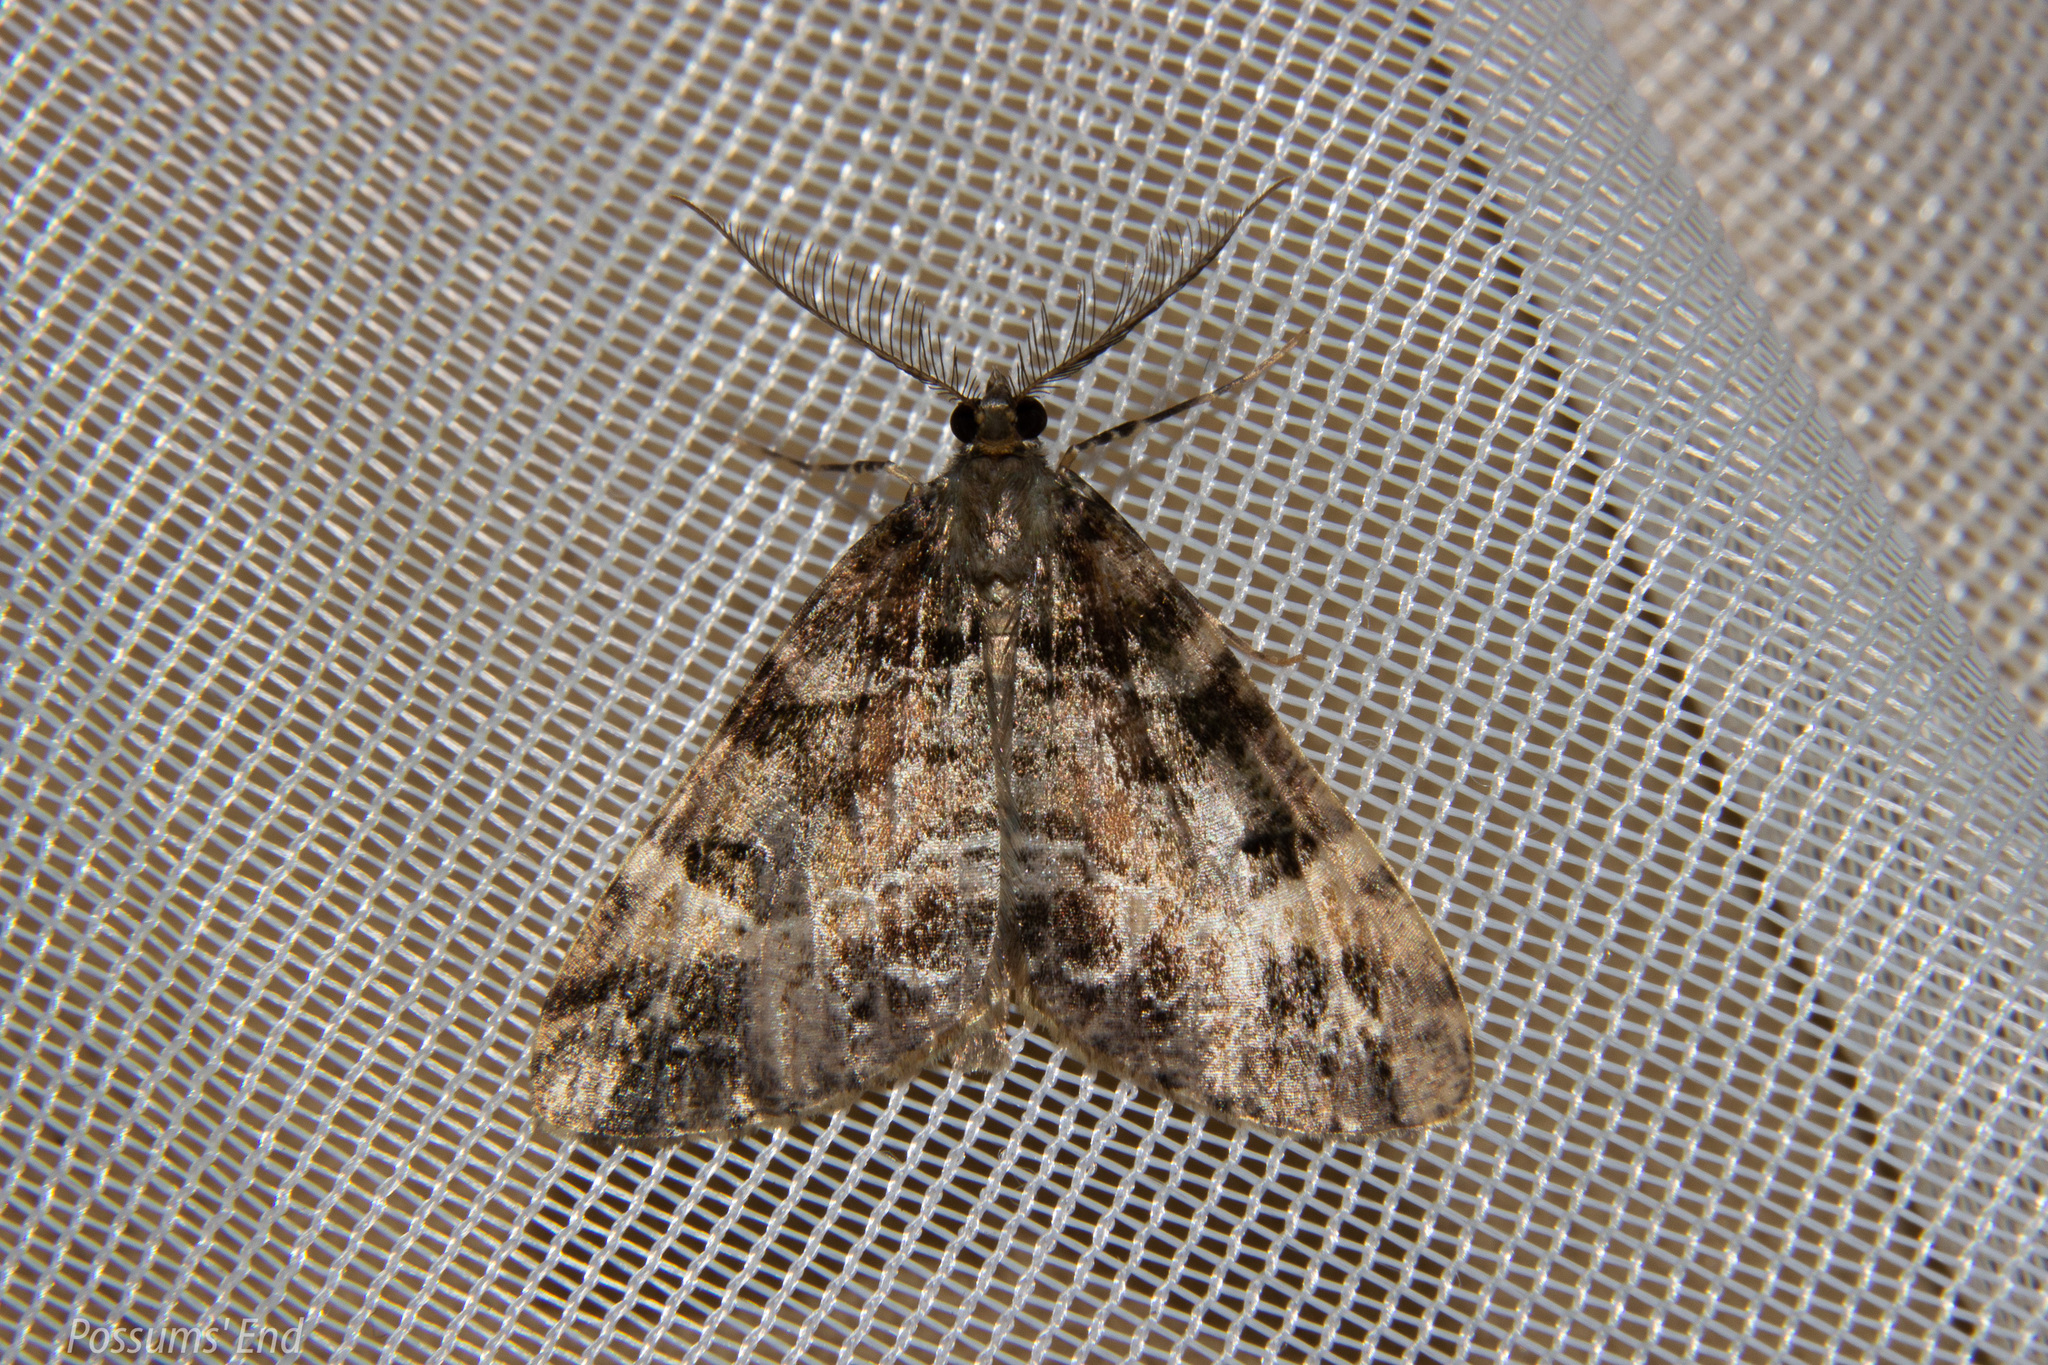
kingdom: Animalia
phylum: Arthropoda
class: Insecta
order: Lepidoptera
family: Geometridae
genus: Pseudocoremia
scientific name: Pseudocoremia productata
